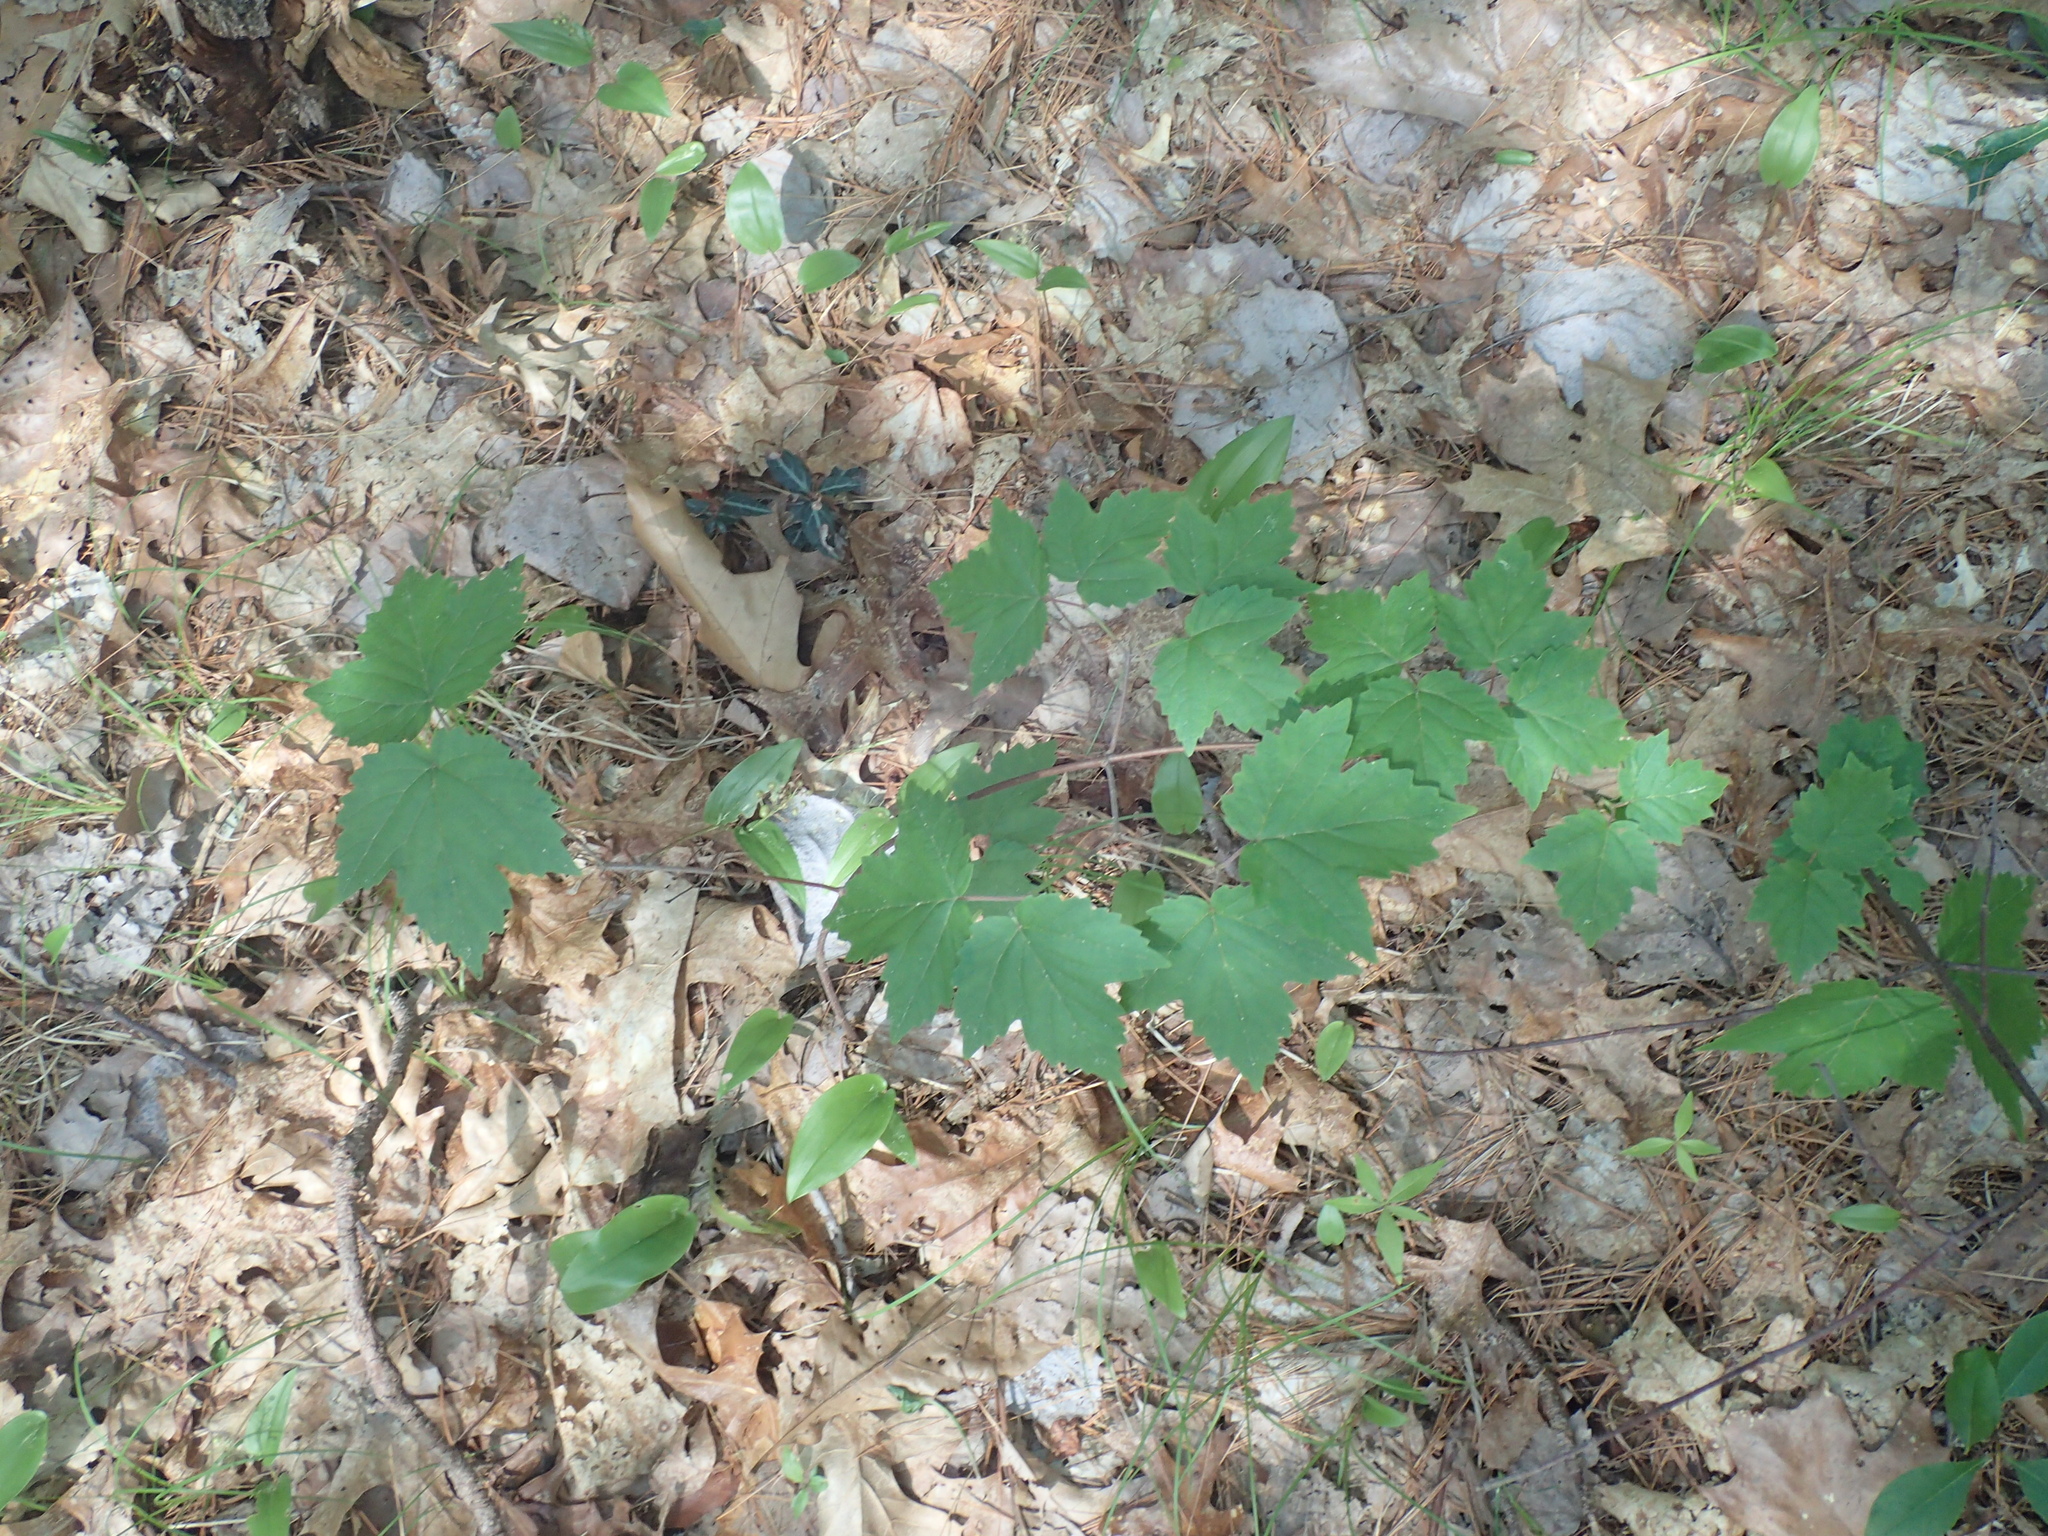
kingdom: Plantae
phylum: Tracheophyta
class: Magnoliopsida
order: Dipsacales
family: Viburnaceae
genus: Viburnum
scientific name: Viburnum acerifolium
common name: Dockmackie
